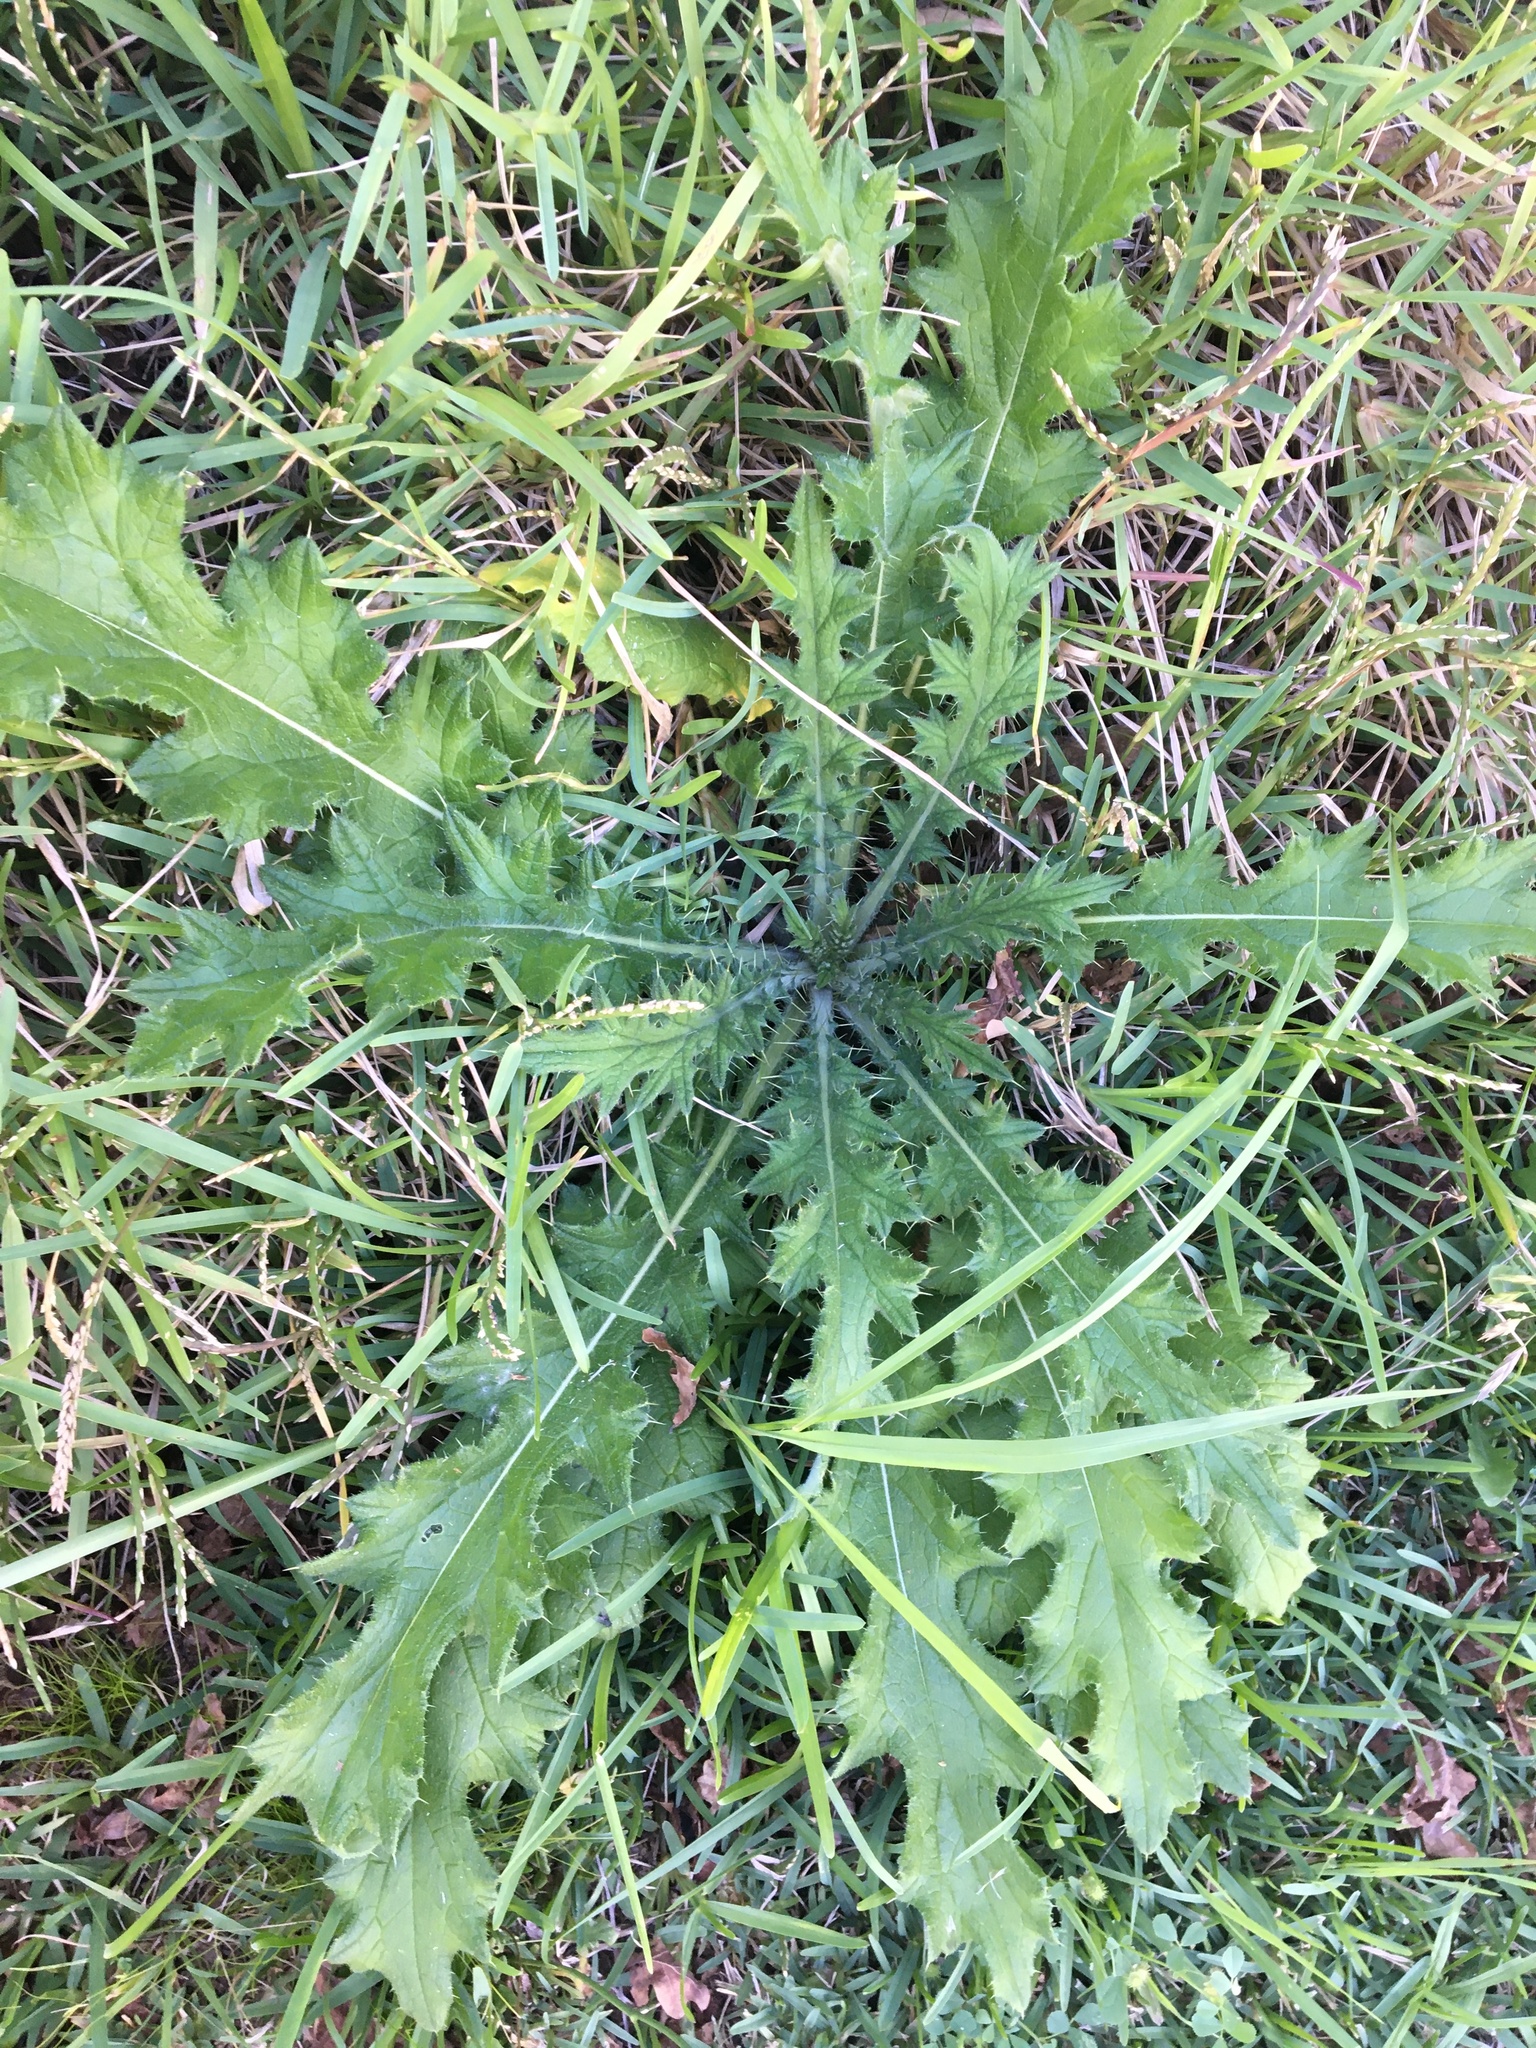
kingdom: Plantae
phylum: Tracheophyta
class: Magnoliopsida
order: Asterales
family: Asteraceae
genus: Cirsium
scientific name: Cirsium vulgare
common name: Bull thistle
